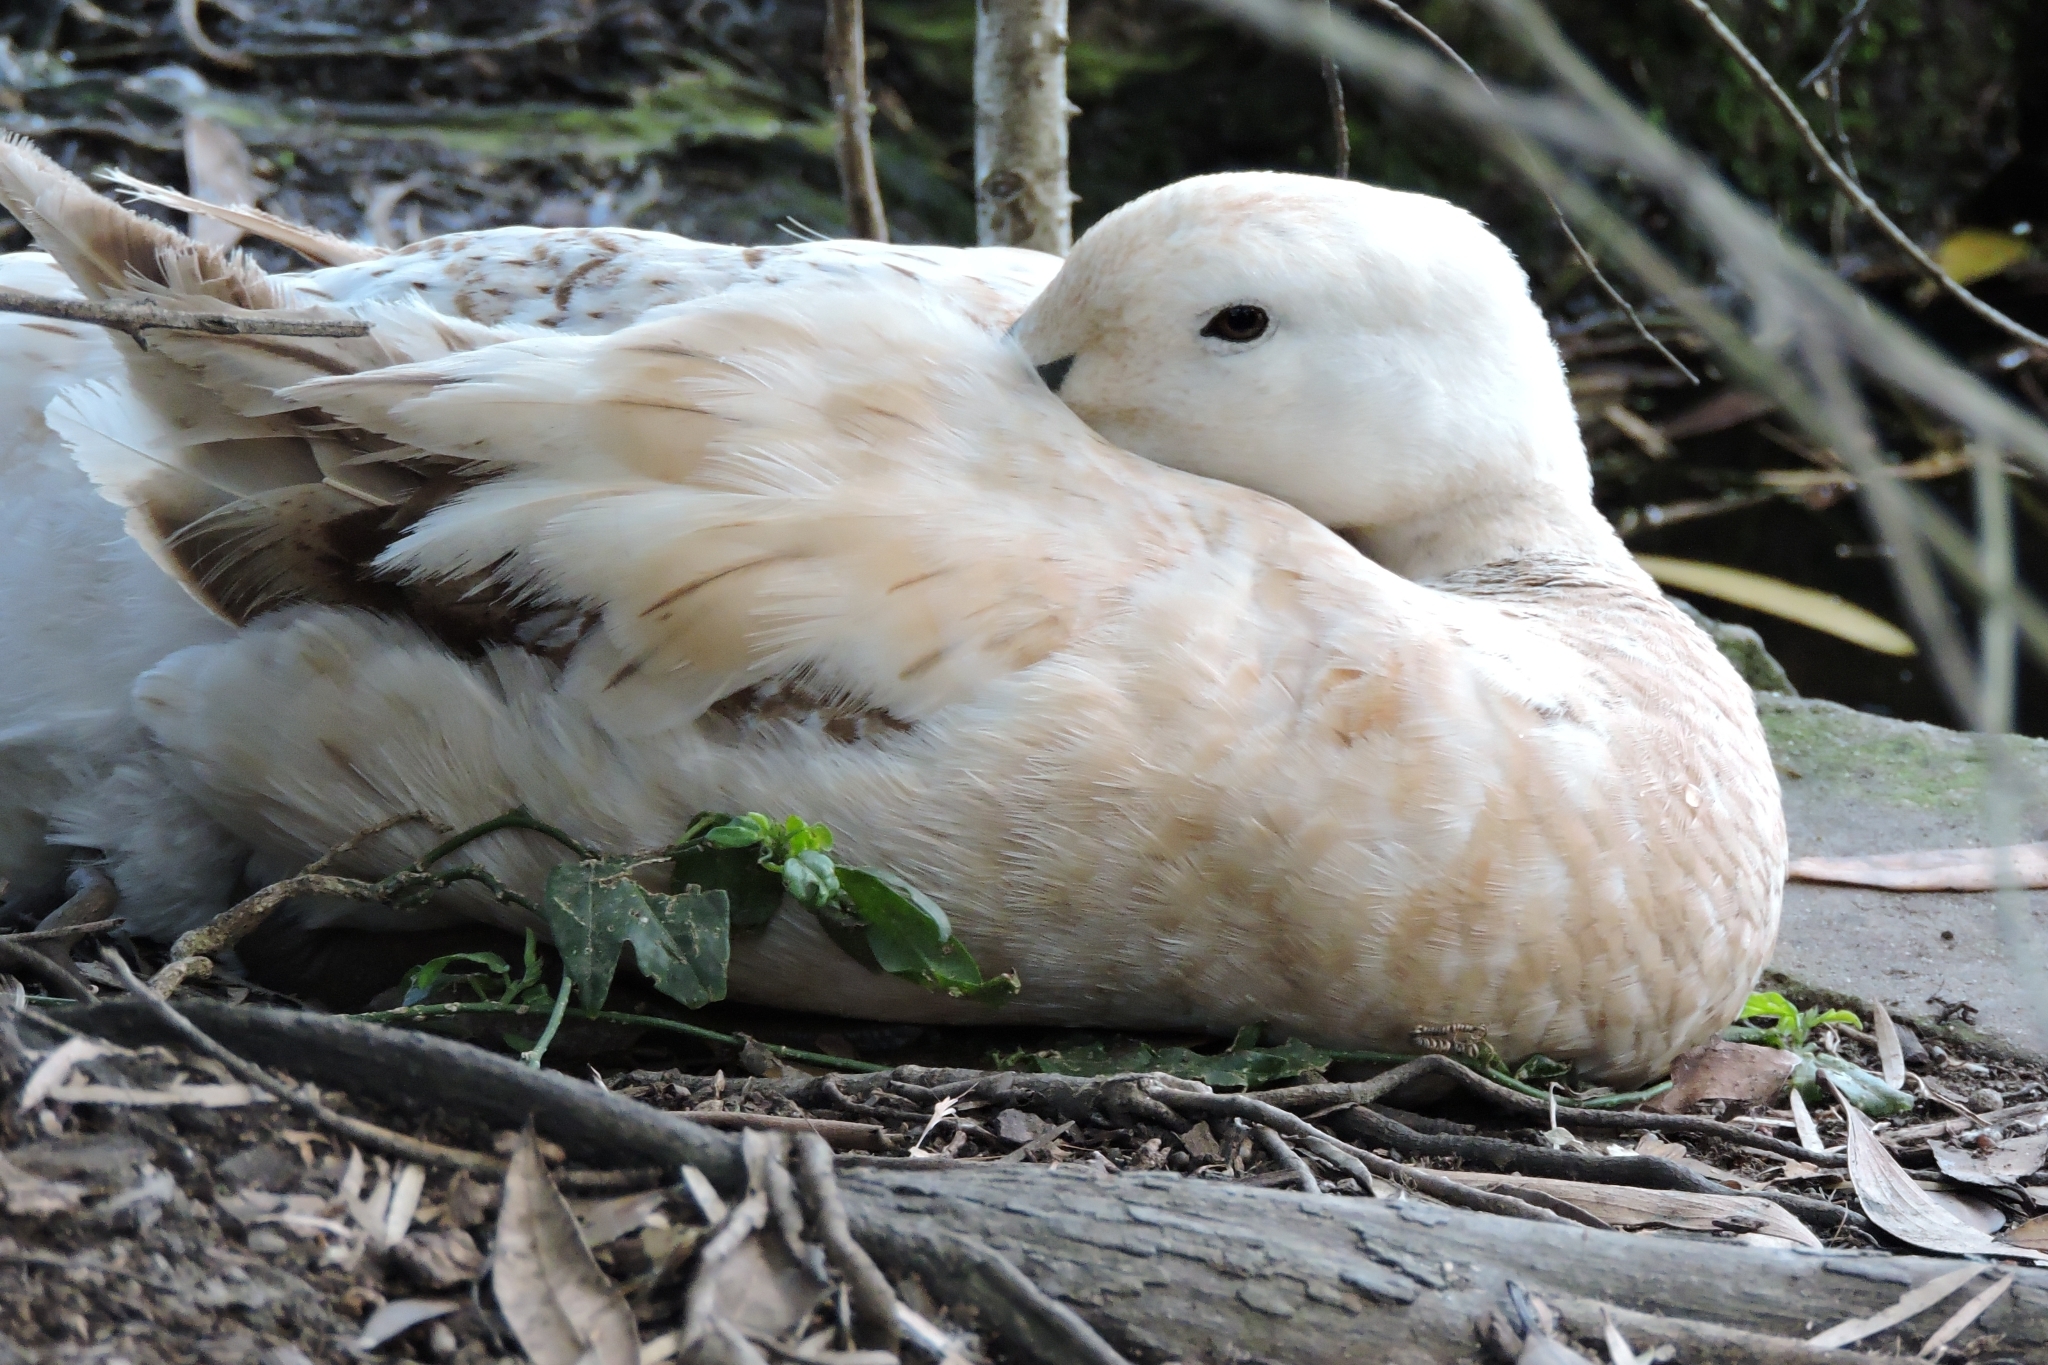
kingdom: Animalia
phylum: Chordata
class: Aves
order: Anseriformes
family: Anatidae
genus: Anas
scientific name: Anas platyrhynchos
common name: Mallard
